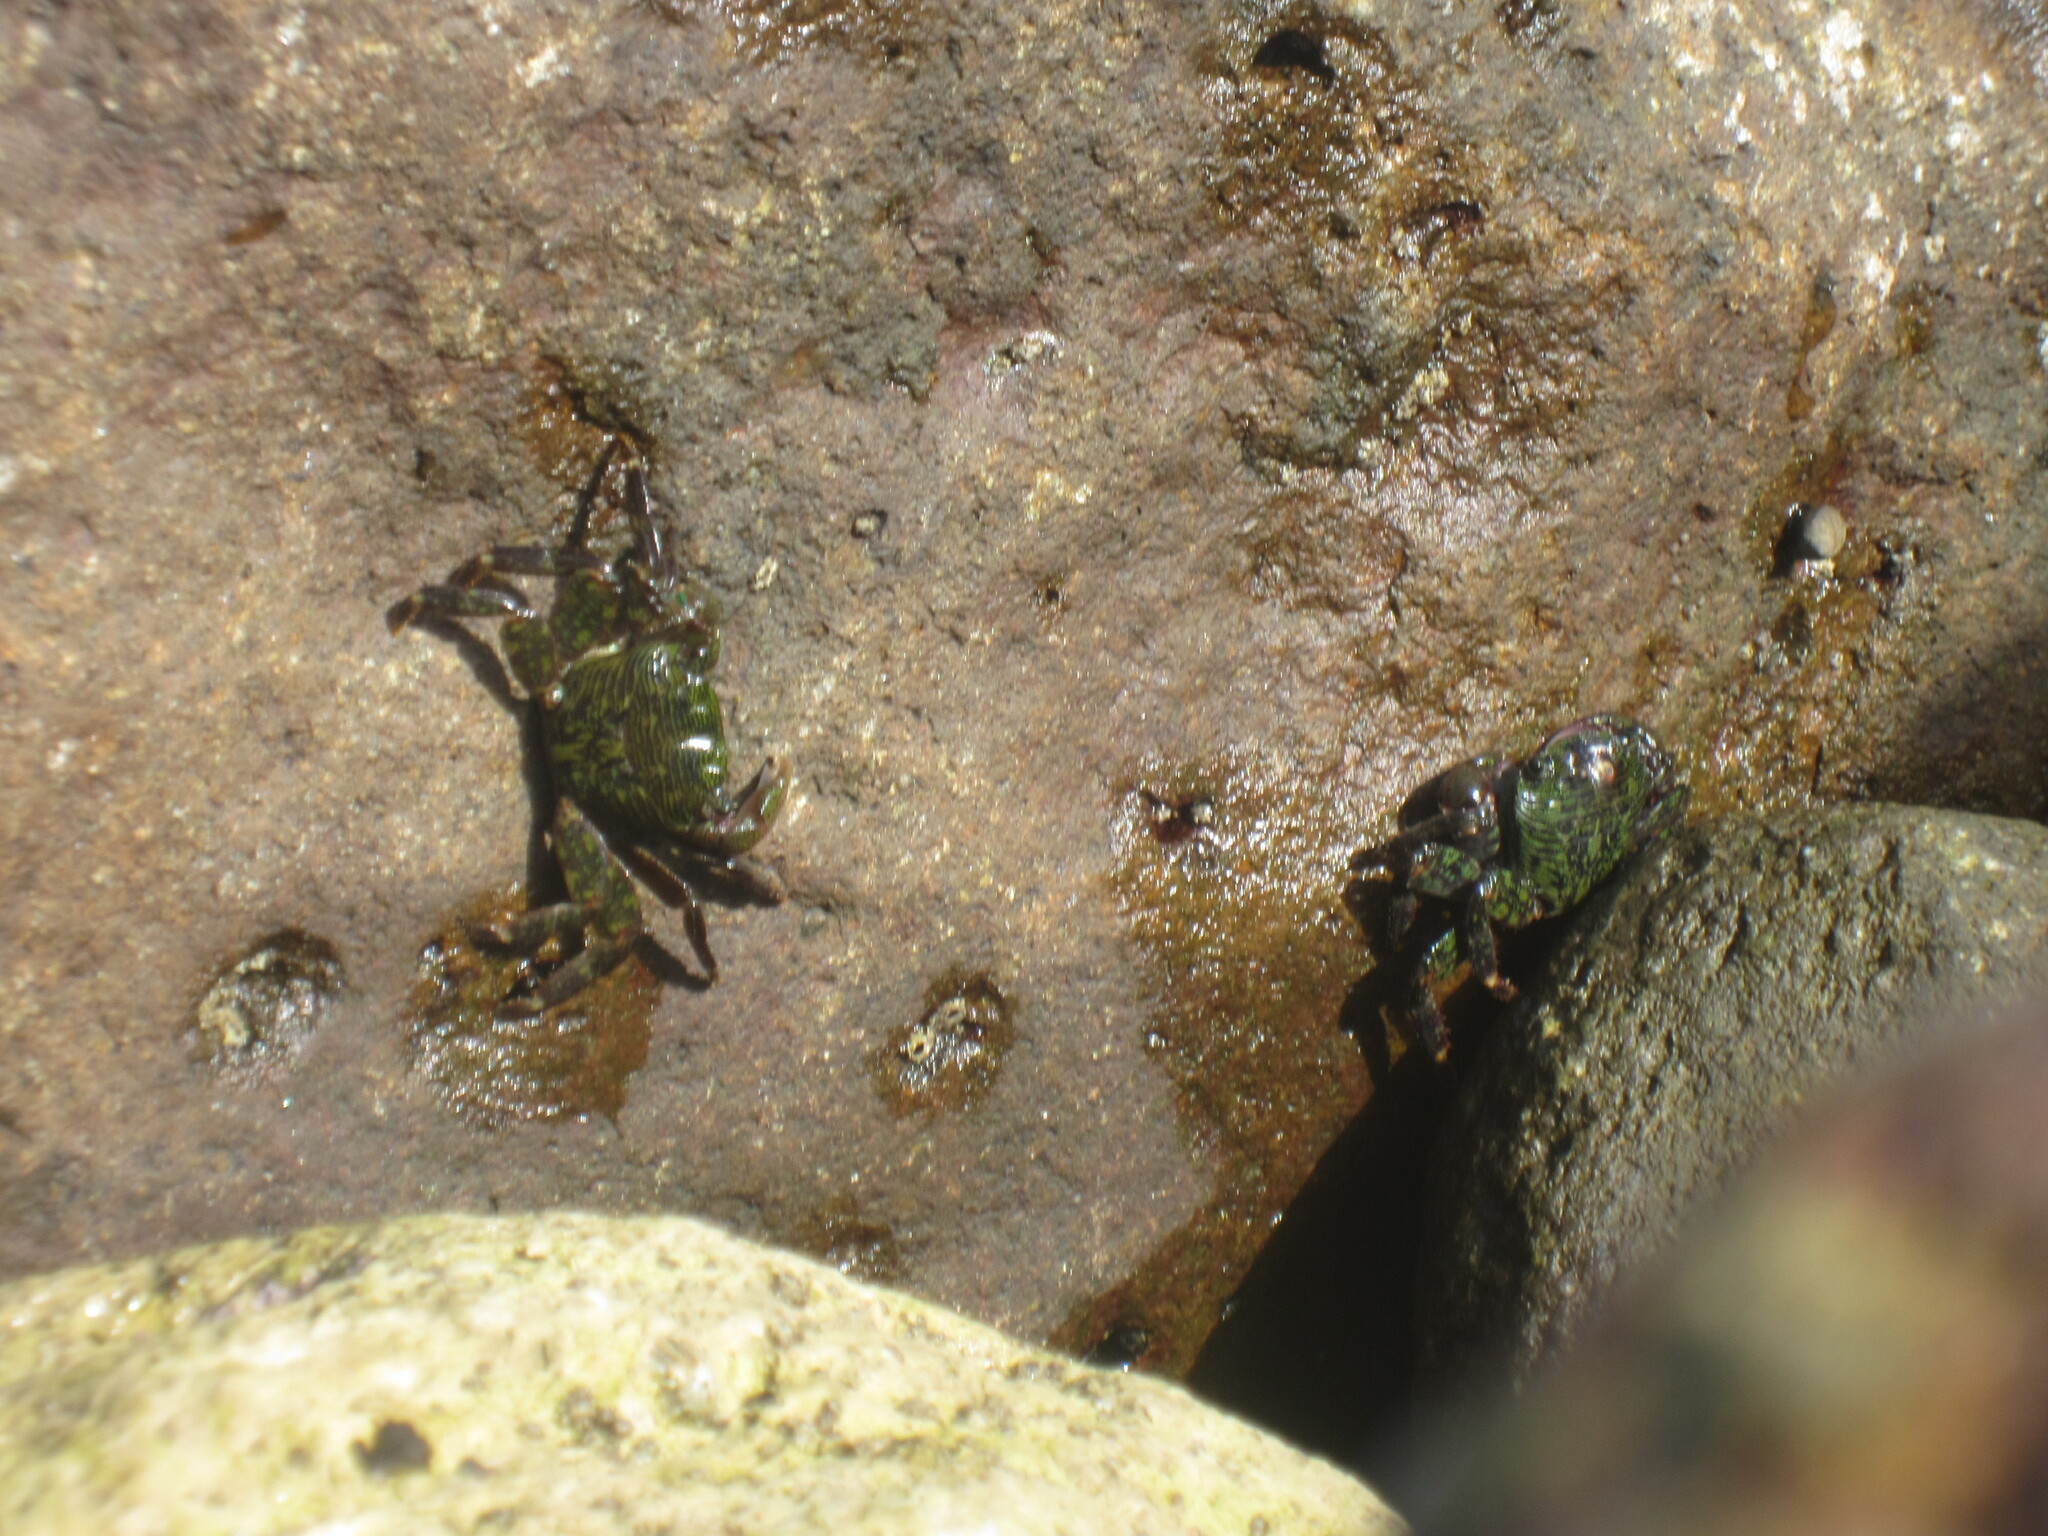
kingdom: Animalia
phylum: Arthropoda
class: Malacostraca
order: Decapoda
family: Grapsidae
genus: Pachygrapsus
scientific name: Pachygrapsus crassipes
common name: Striped shore crab
